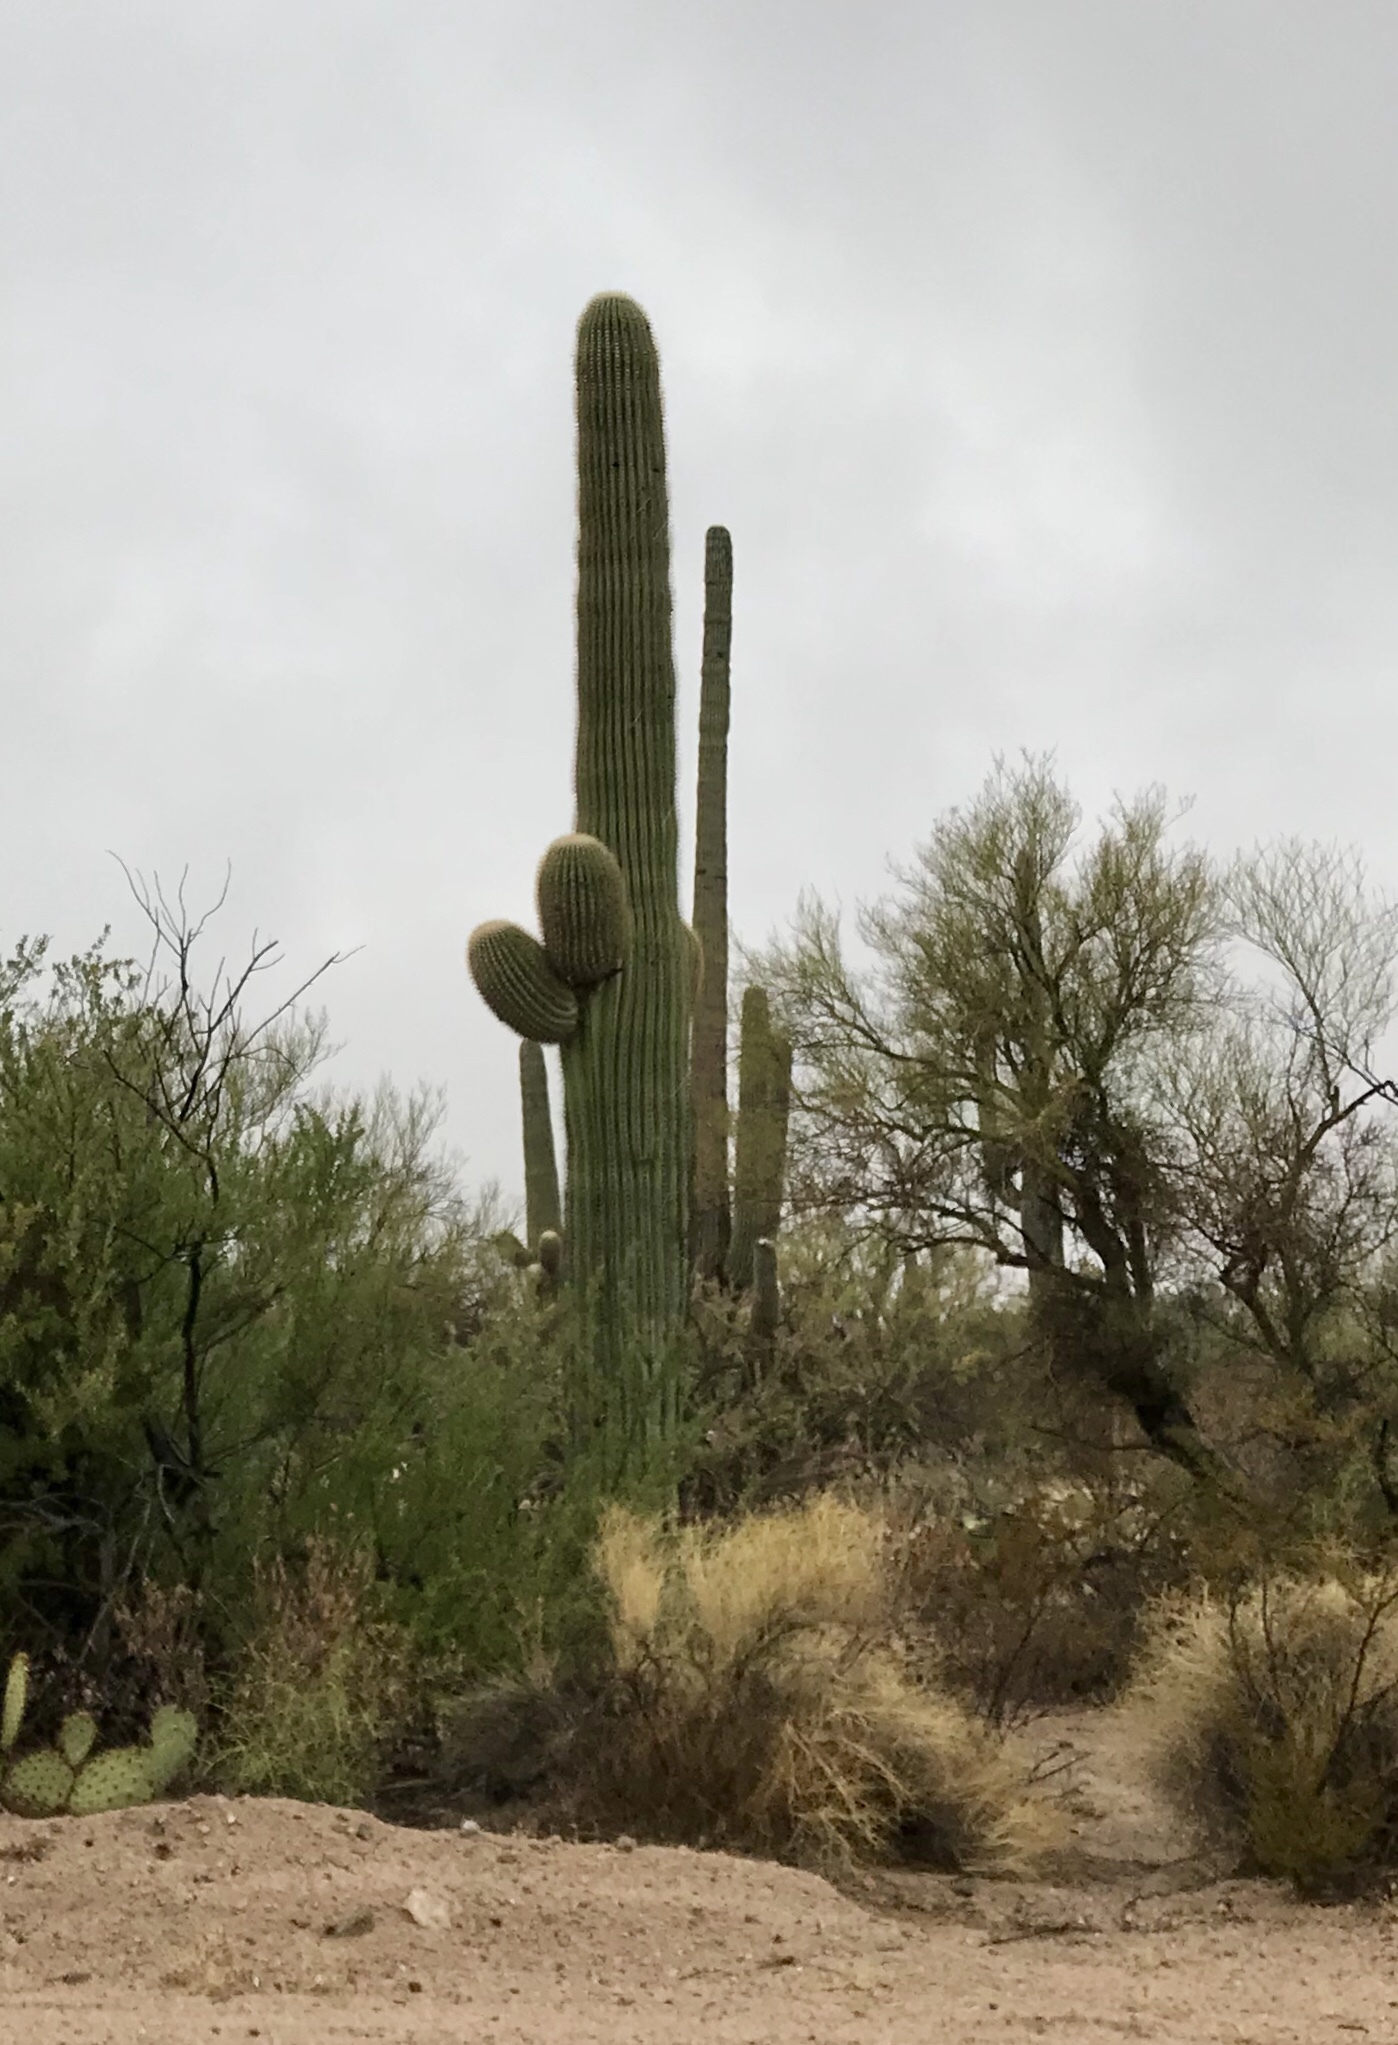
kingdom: Plantae
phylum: Tracheophyta
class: Magnoliopsida
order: Caryophyllales
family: Cactaceae
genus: Carnegiea
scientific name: Carnegiea gigantea
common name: Saguaro
